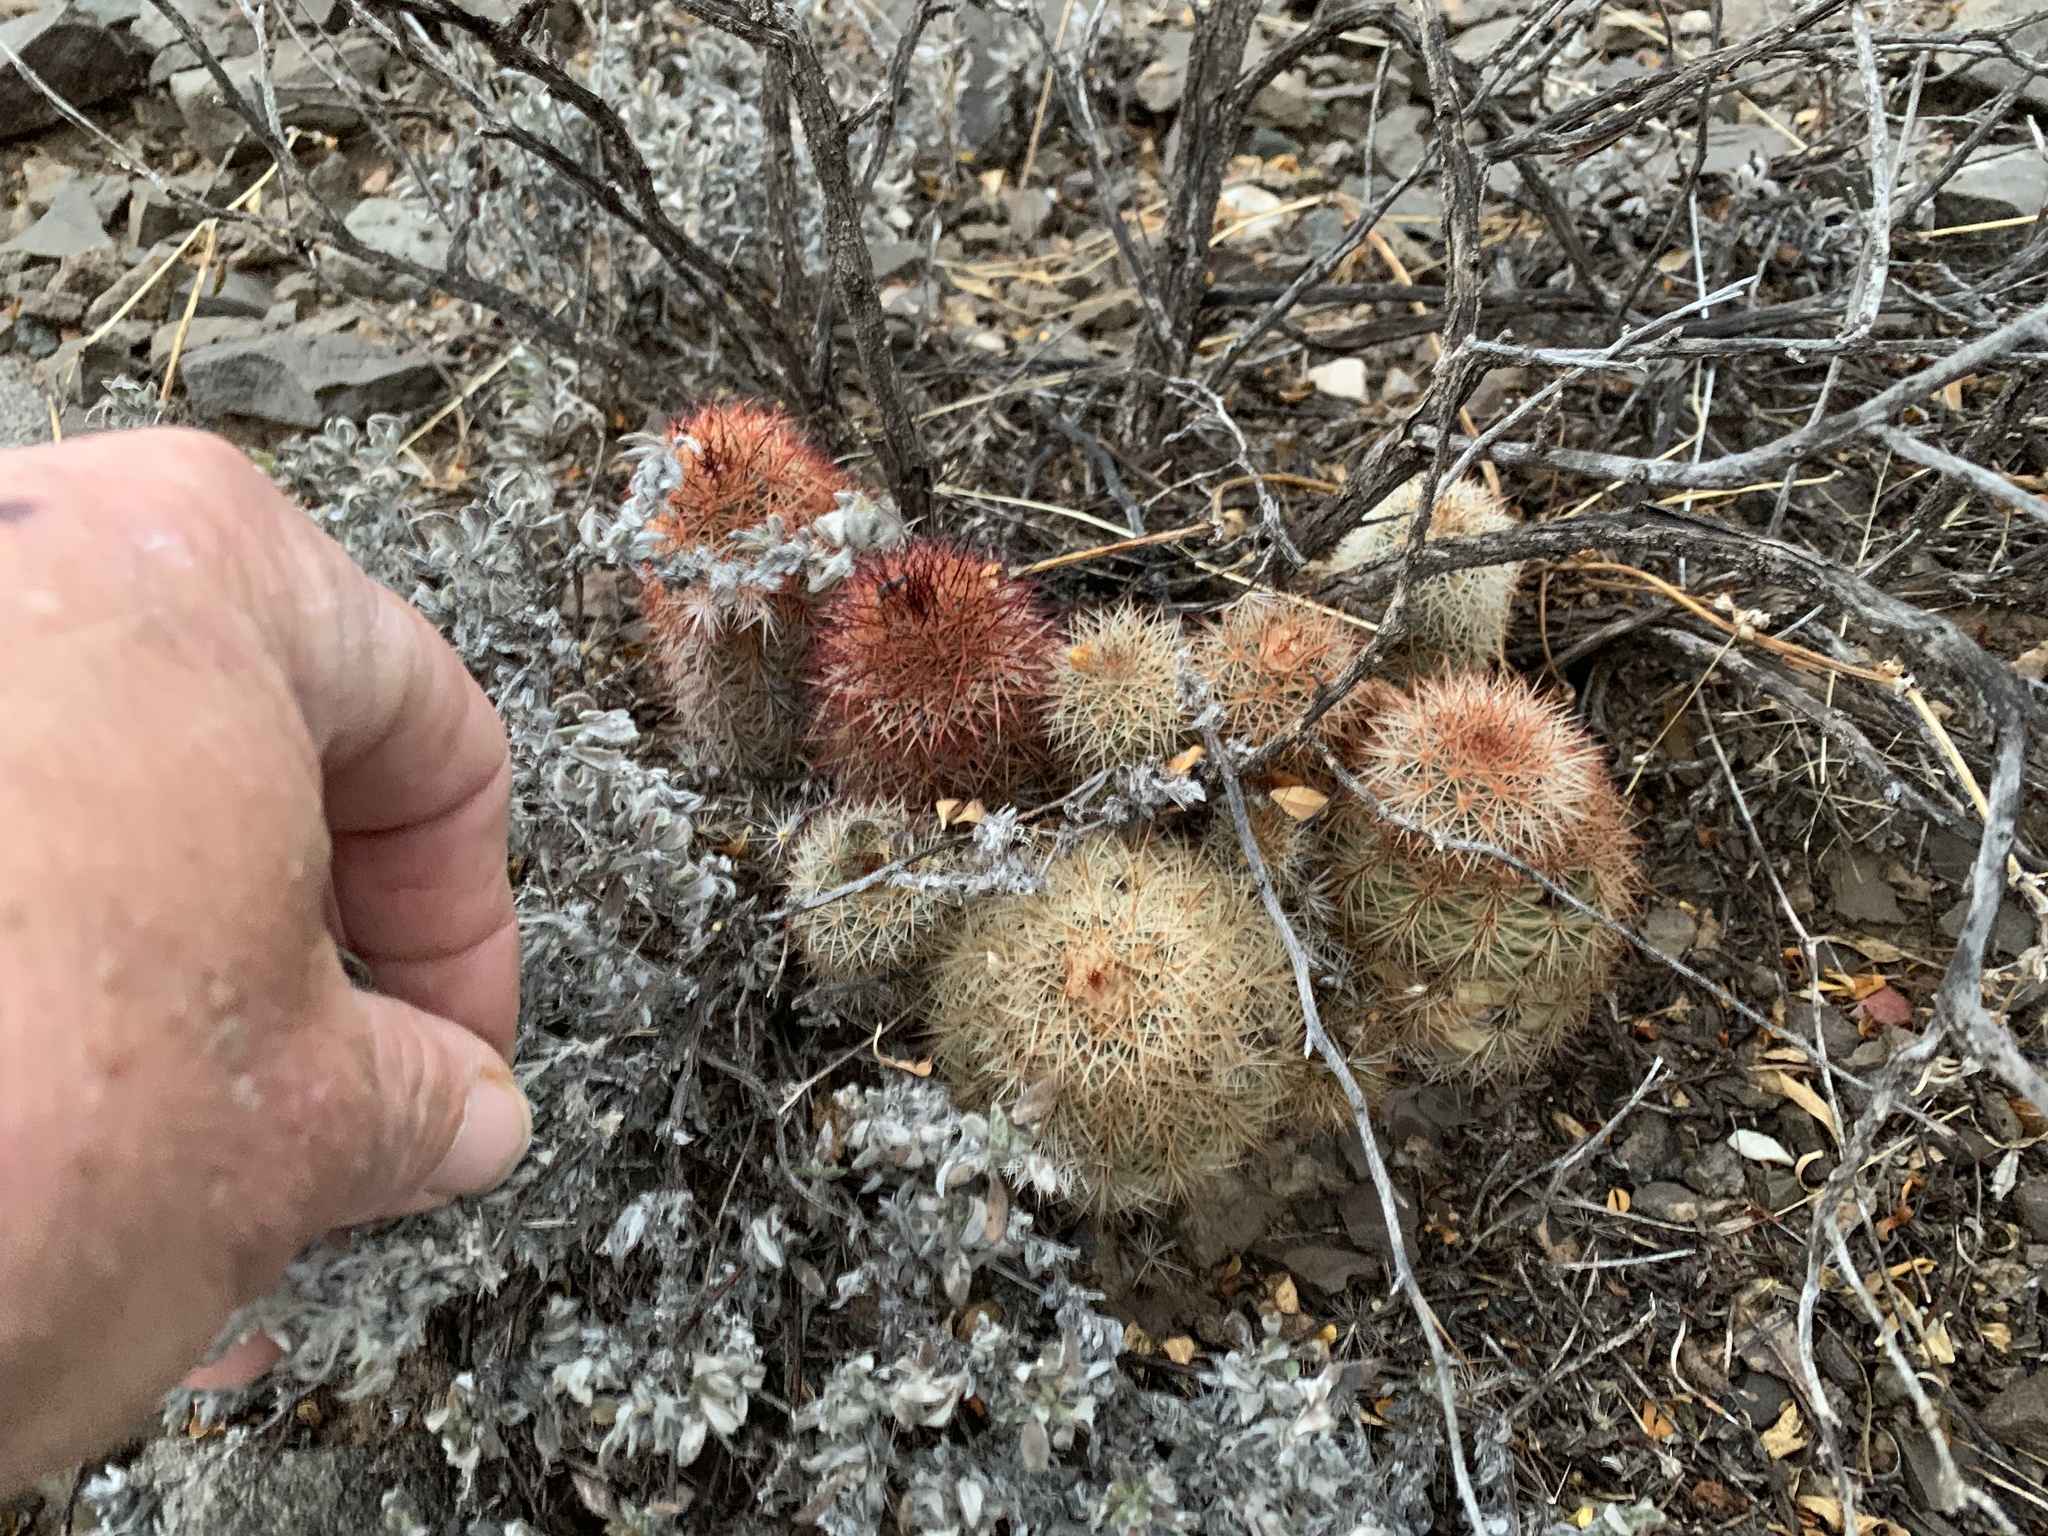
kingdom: Plantae
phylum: Tracheophyta
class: Magnoliopsida
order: Caryophyllales
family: Cactaceae
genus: Echinocereus
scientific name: Echinocereus dasyacanthus
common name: Spiny hedgehog cactus
